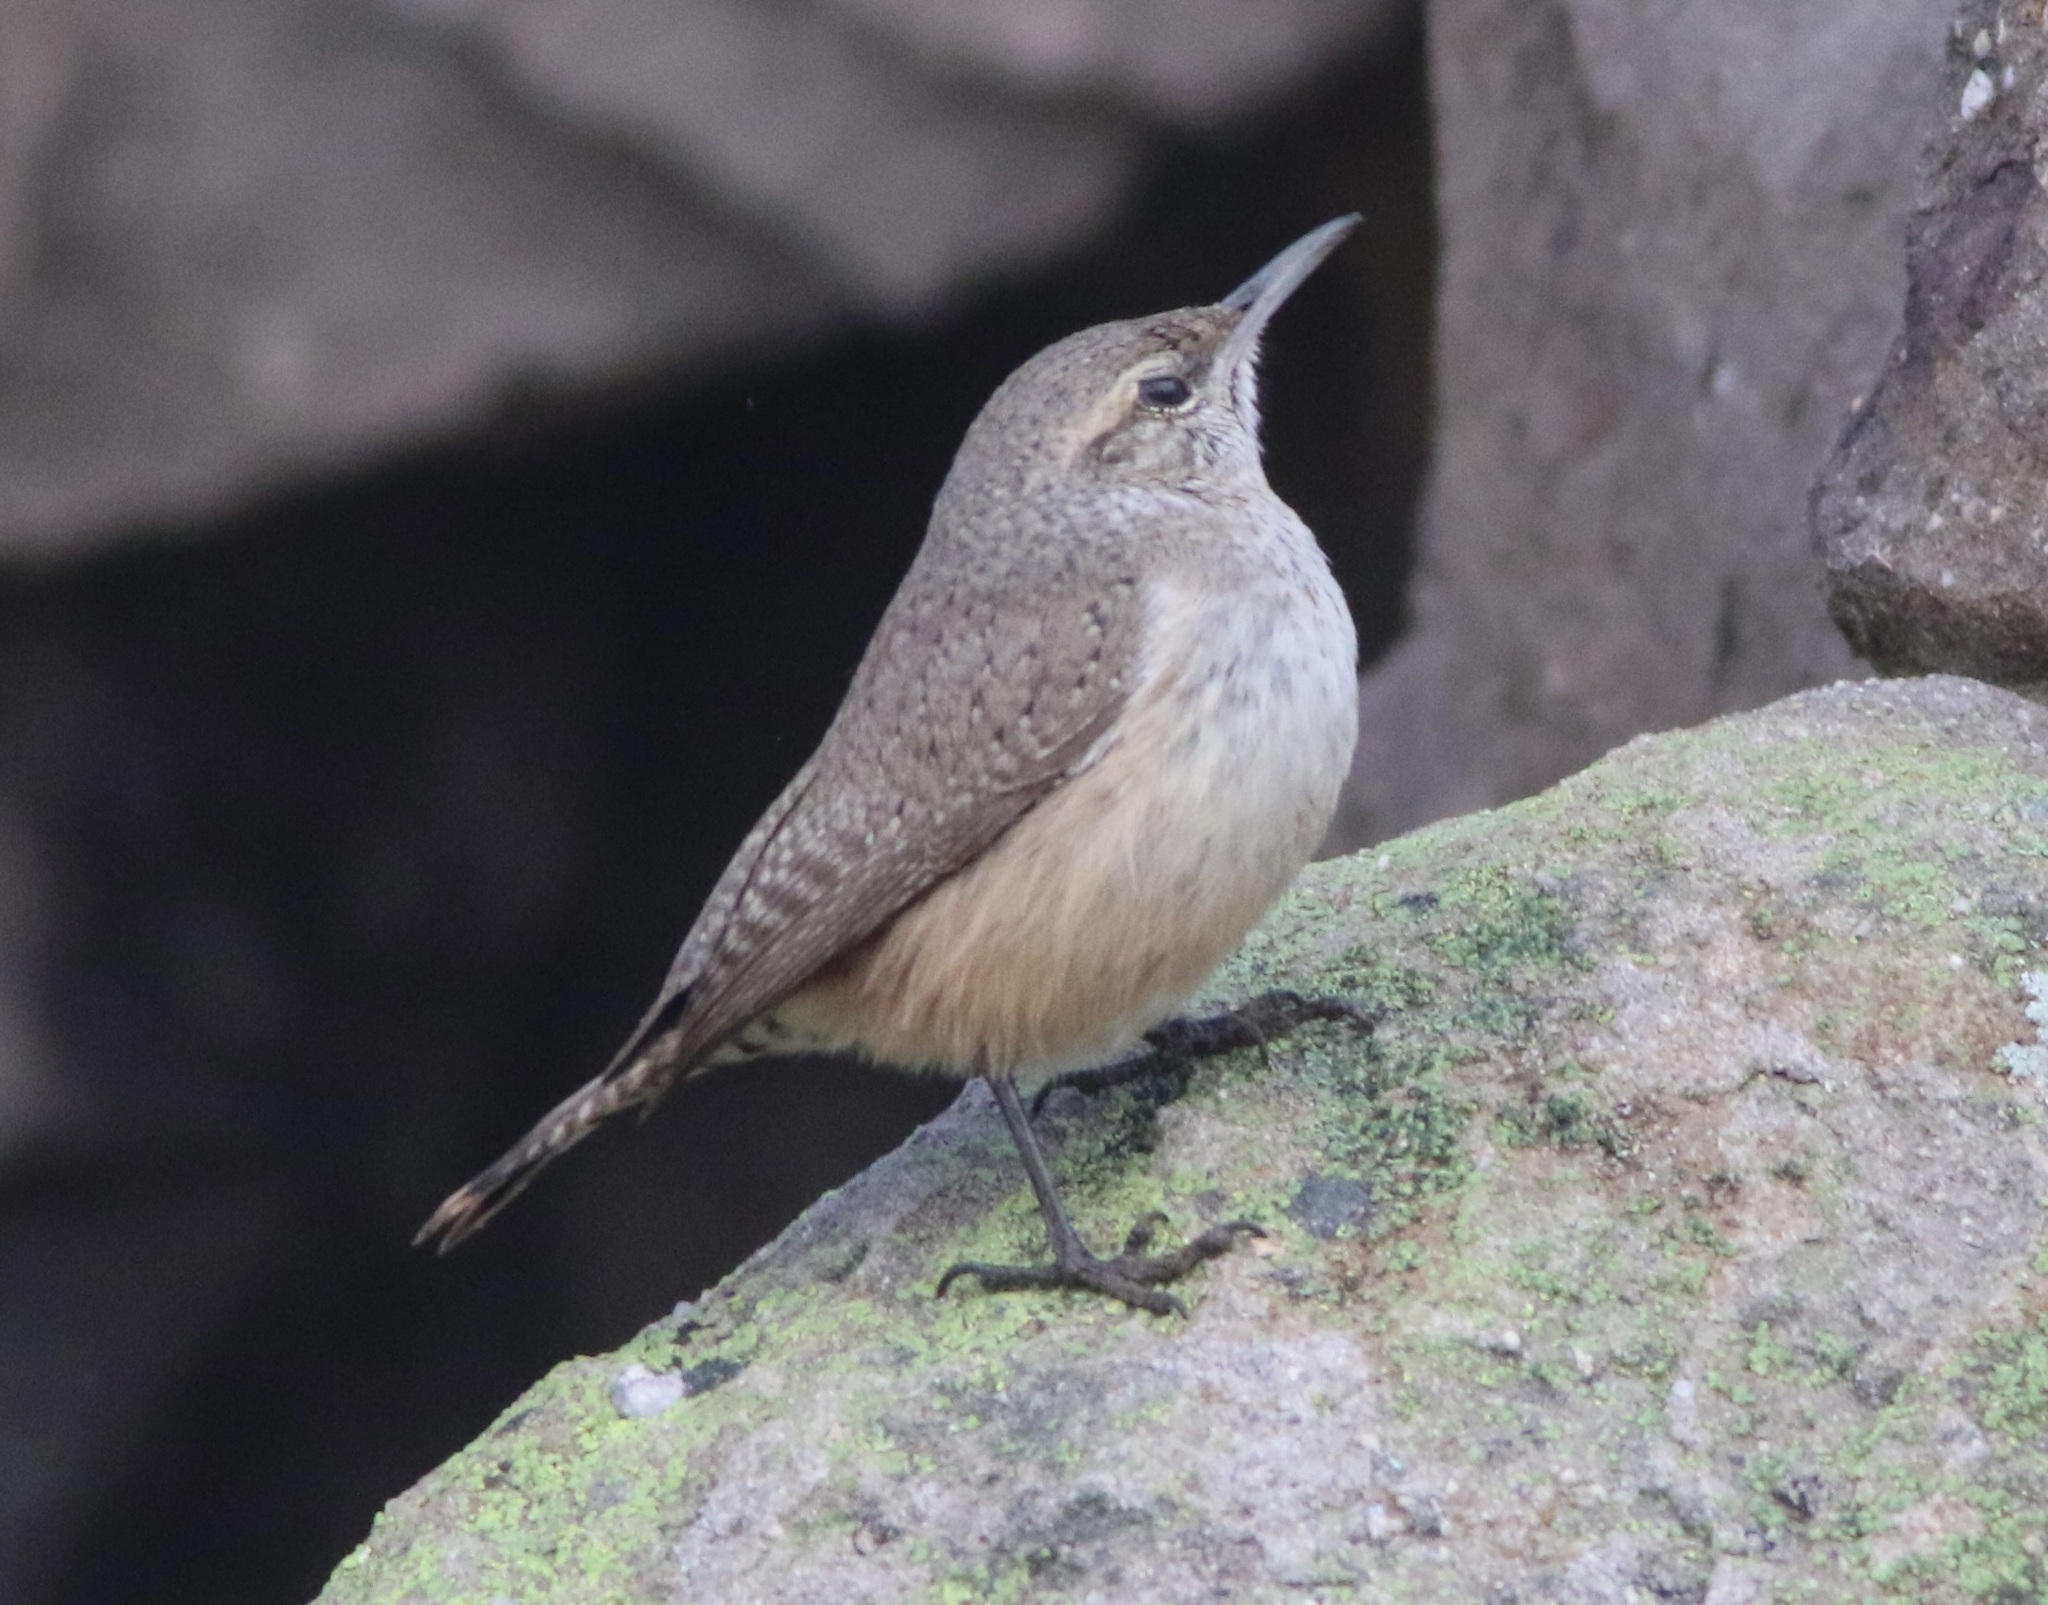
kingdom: Animalia
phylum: Chordata
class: Aves
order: Passeriformes
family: Troglodytidae
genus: Salpinctes
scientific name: Salpinctes obsoletus
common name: Rock wren
